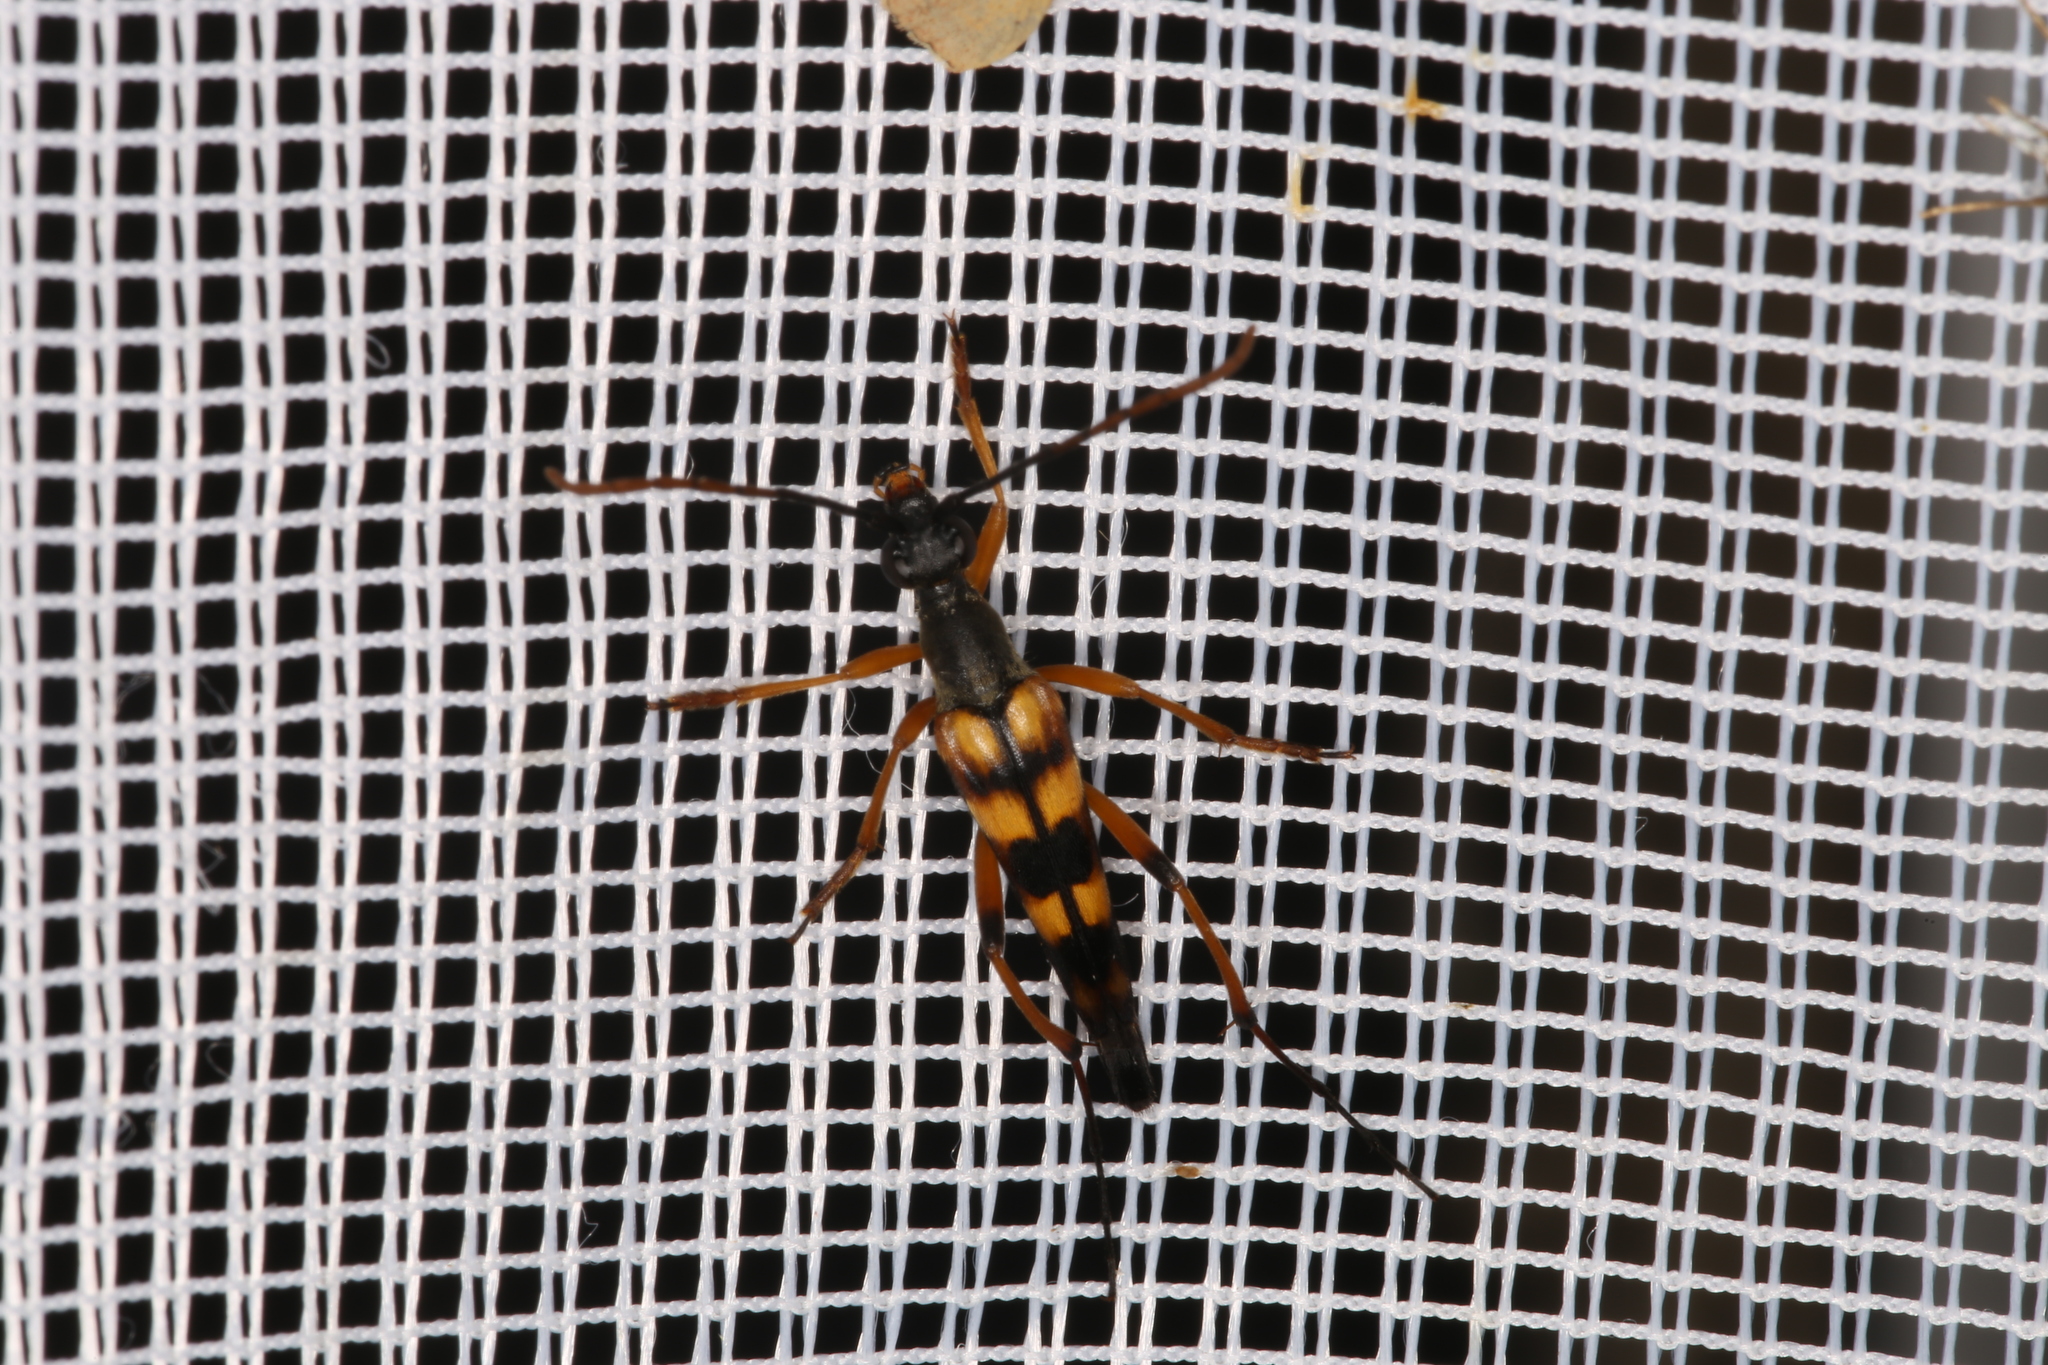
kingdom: Animalia
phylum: Arthropoda
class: Insecta
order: Coleoptera
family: Cerambycidae
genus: Strangalia
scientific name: Strangalia attenuata
